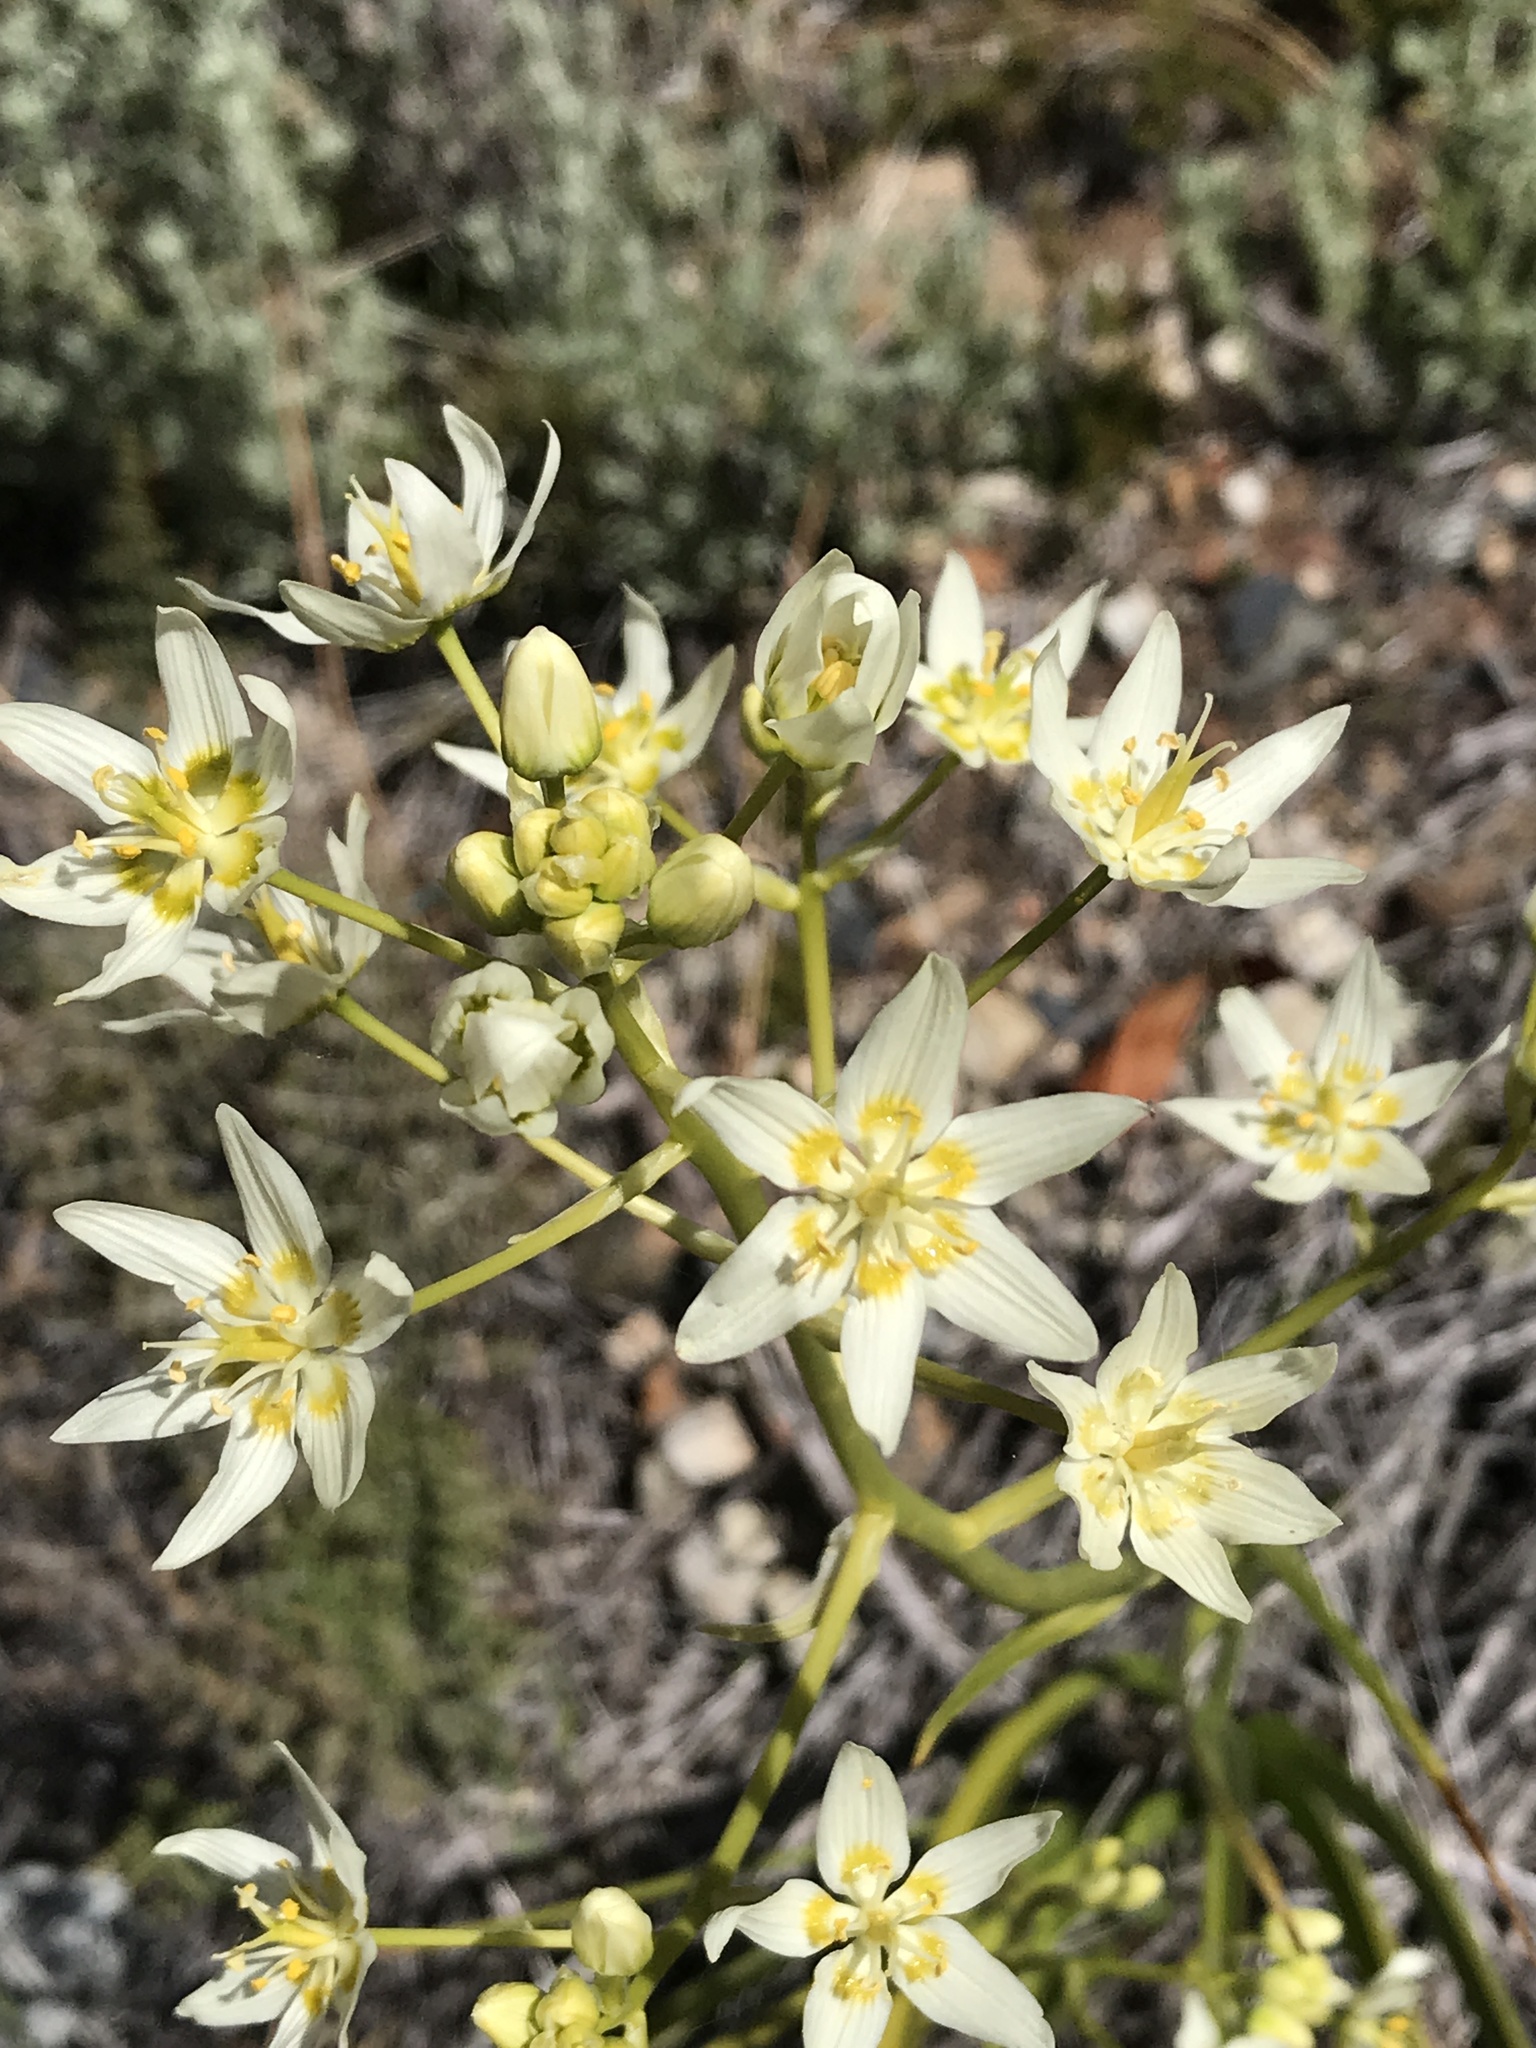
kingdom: Plantae
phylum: Tracheophyta
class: Liliopsida
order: Liliales
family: Melanthiaceae
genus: Toxicoscordion
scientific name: Toxicoscordion fremontii
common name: Fremont's death camas
